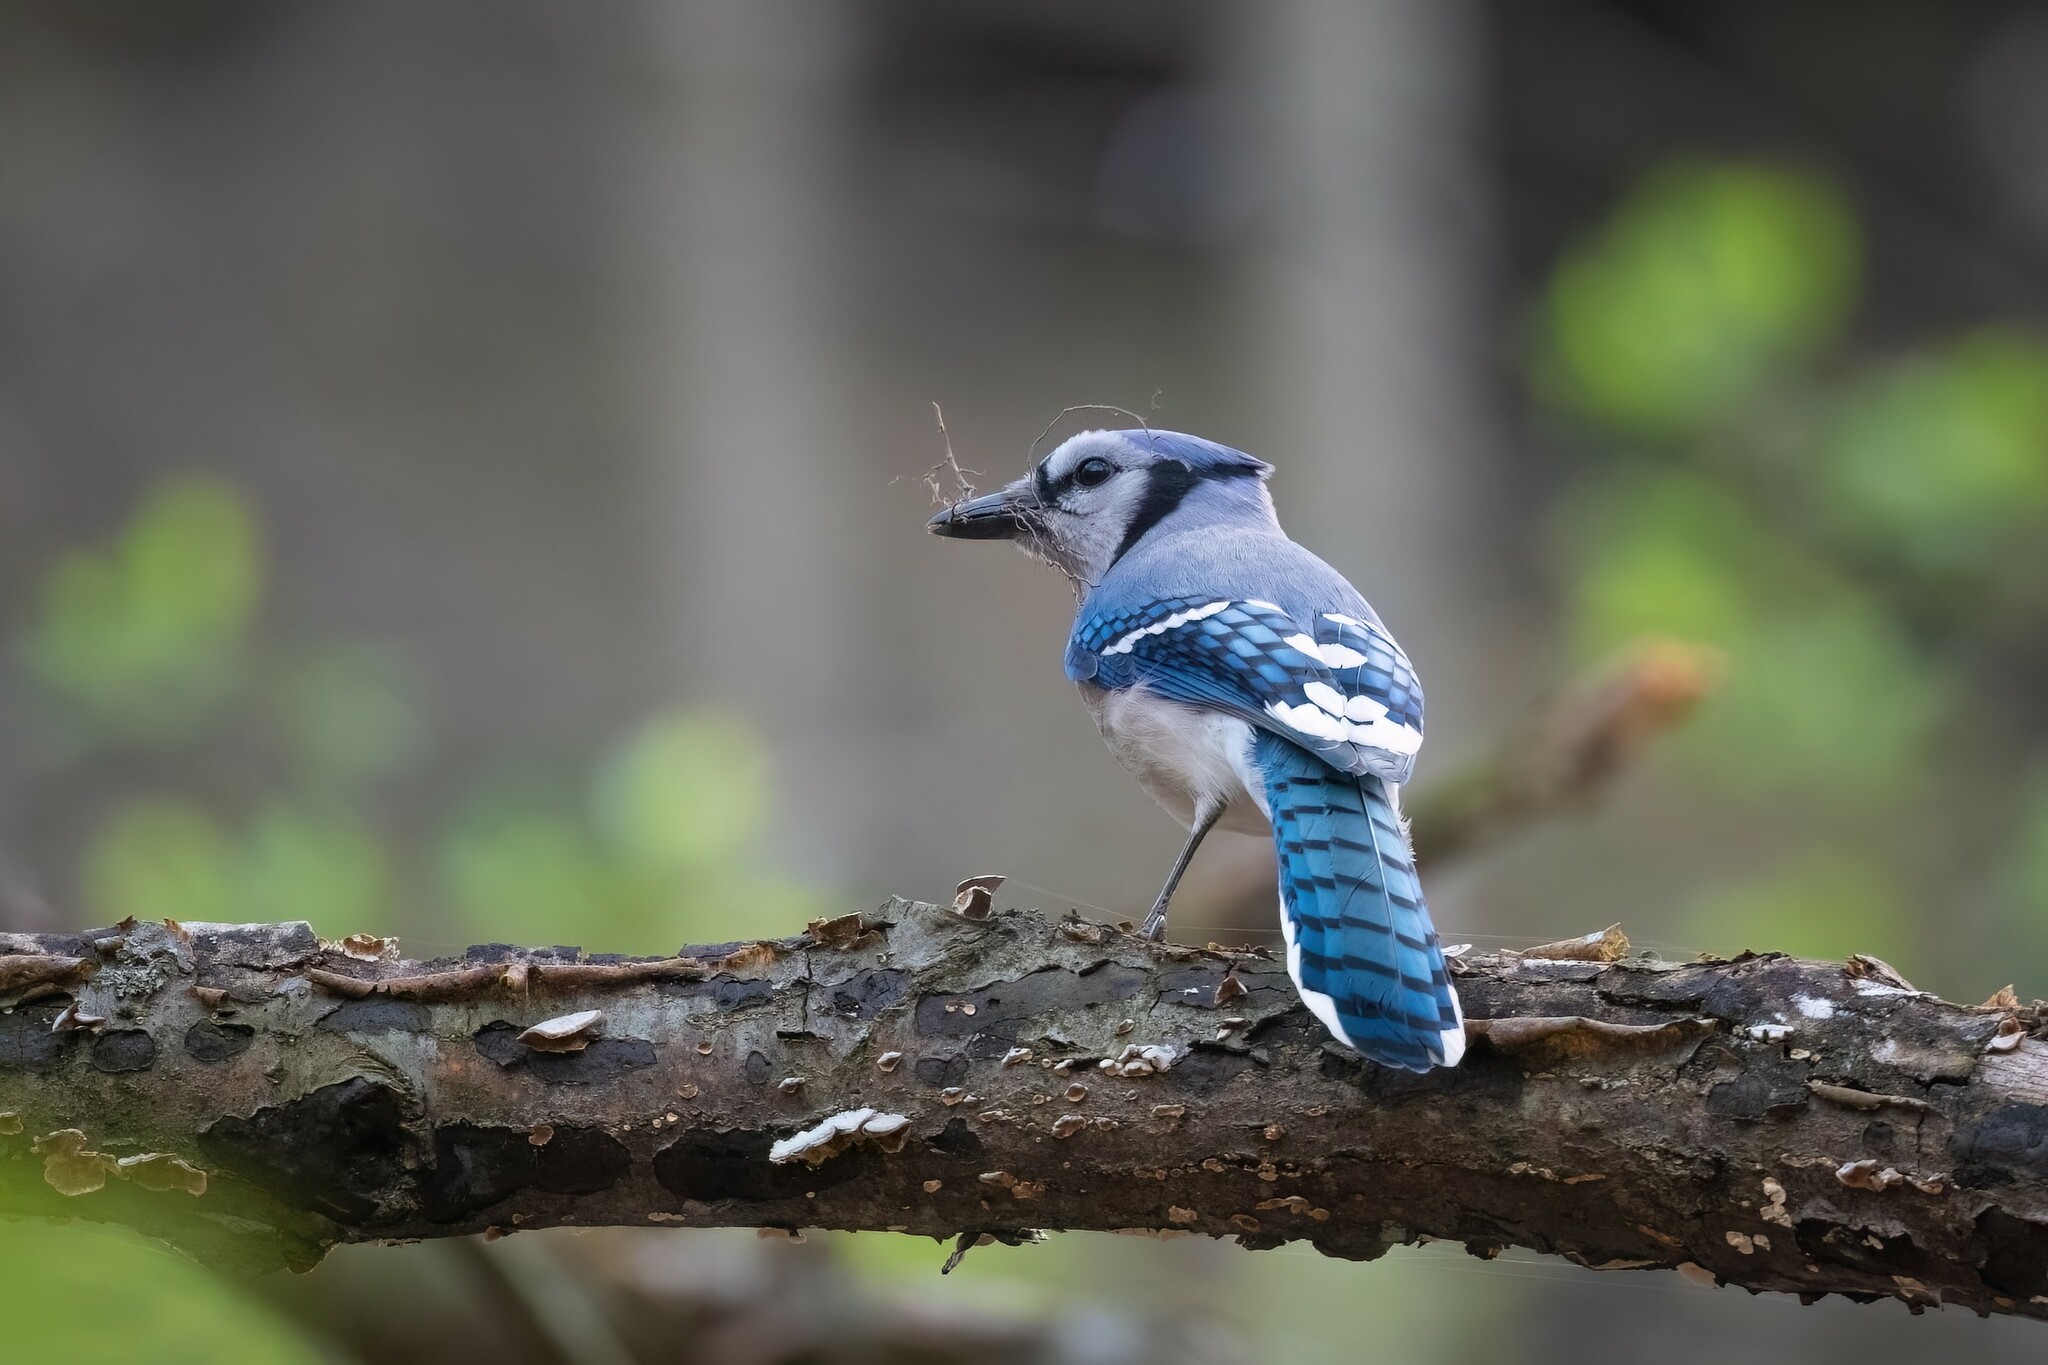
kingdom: Animalia
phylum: Chordata
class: Aves
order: Passeriformes
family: Corvidae
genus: Cyanocitta
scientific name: Cyanocitta cristata
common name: Blue jay
